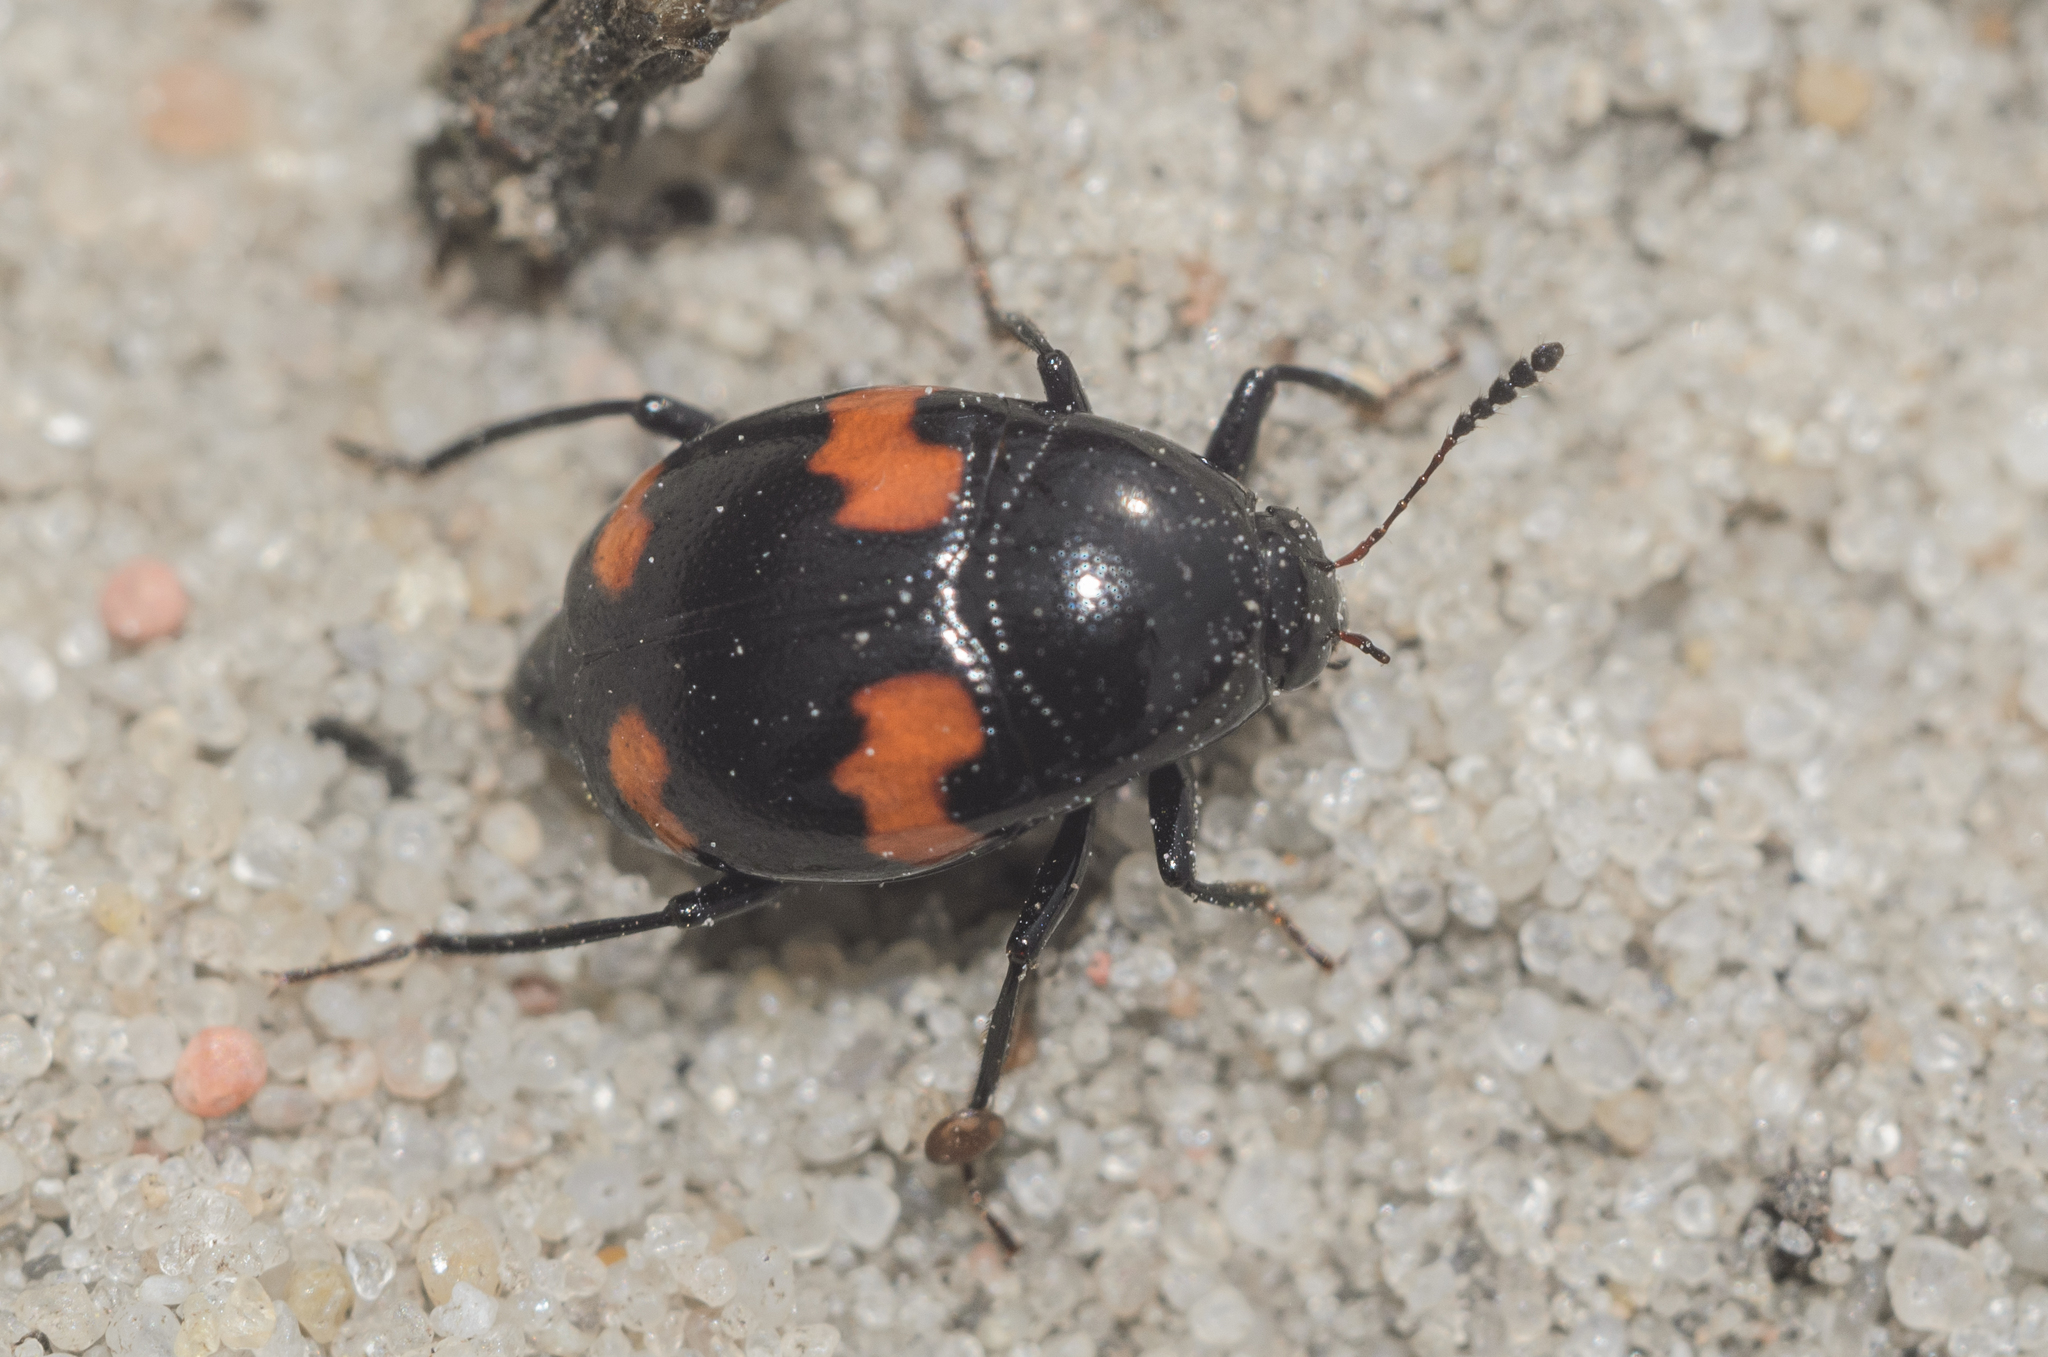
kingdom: Animalia
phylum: Arthropoda
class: Insecta
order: Coleoptera
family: Staphylinidae
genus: Scaphidium
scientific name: Scaphidium quadrimaculatum
